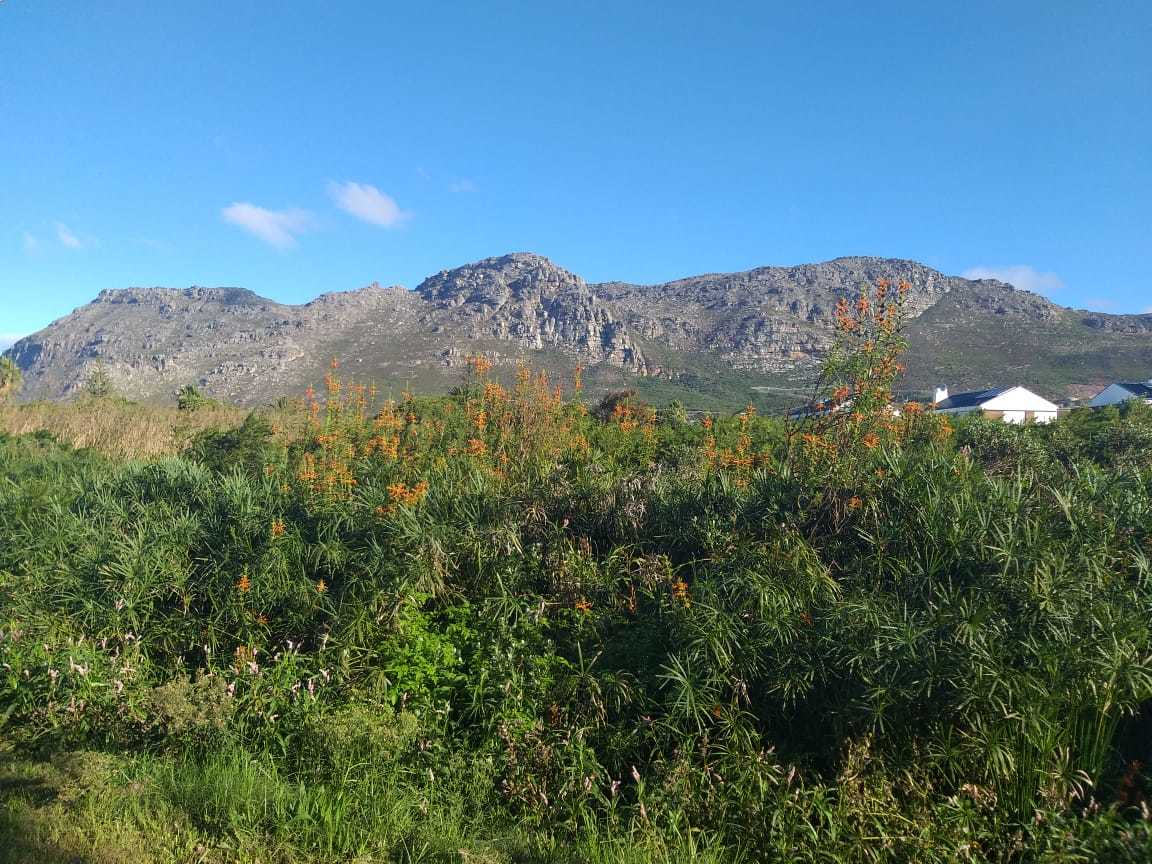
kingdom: Plantae
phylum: Tracheophyta
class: Magnoliopsida
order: Lamiales
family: Lamiaceae
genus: Leonotis
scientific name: Leonotis leonurus
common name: Lion's ear
